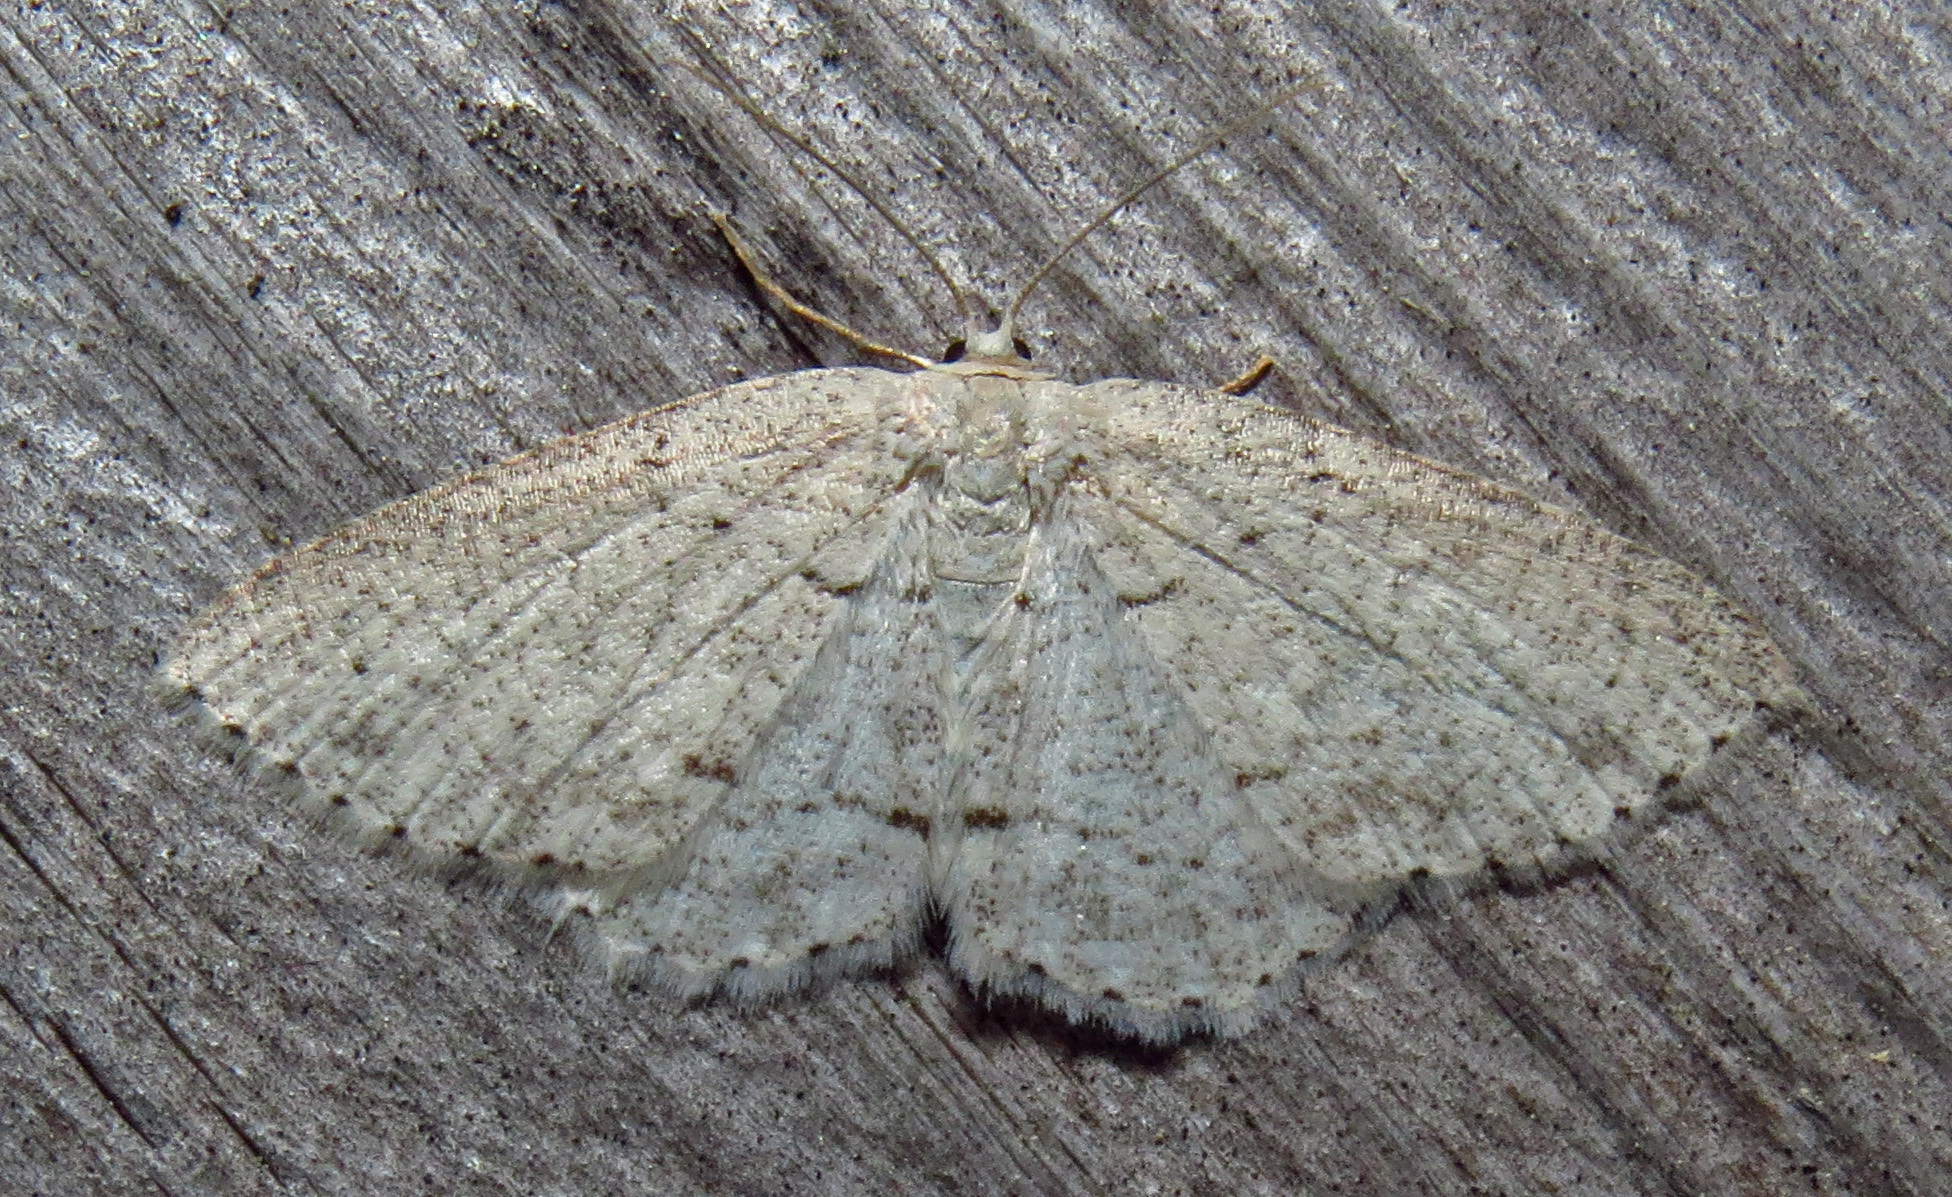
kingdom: Animalia
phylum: Arthropoda
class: Insecta
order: Lepidoptera
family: Geometridae
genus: Cyclophora
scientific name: Cyclophora pendulinaria
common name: Sweet fern geometer
